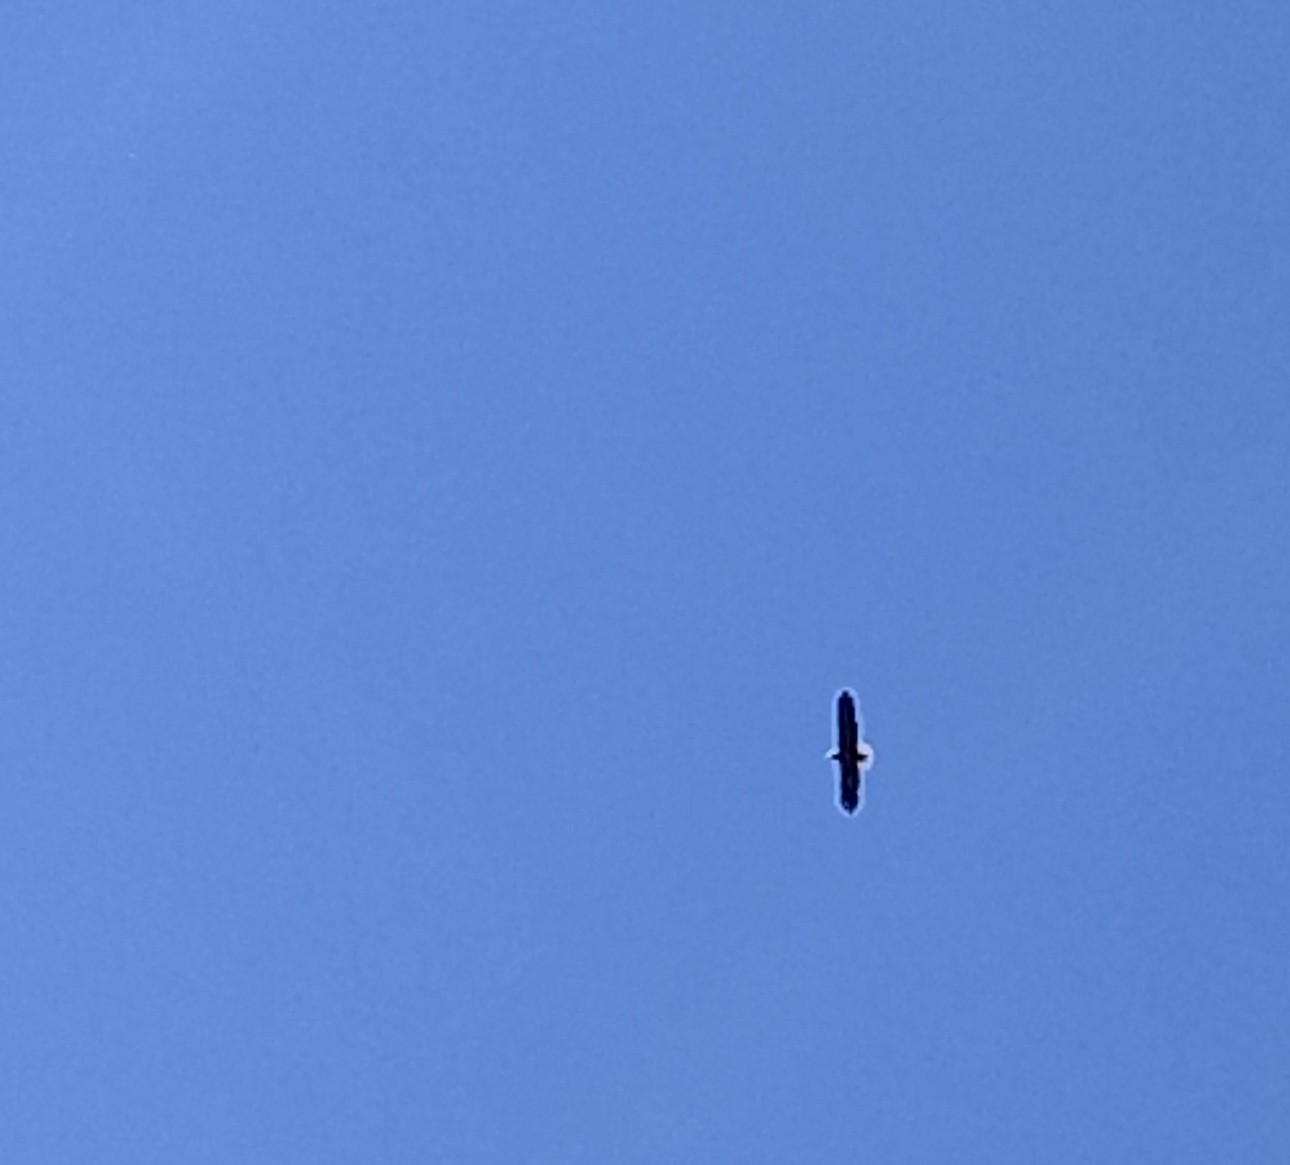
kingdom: Animalia
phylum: Chordata
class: Aves
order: Accipitriformes
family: Accipitridae
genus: Haliaeetus
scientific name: Haliaeetus leucocephalus
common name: Bald eagle
